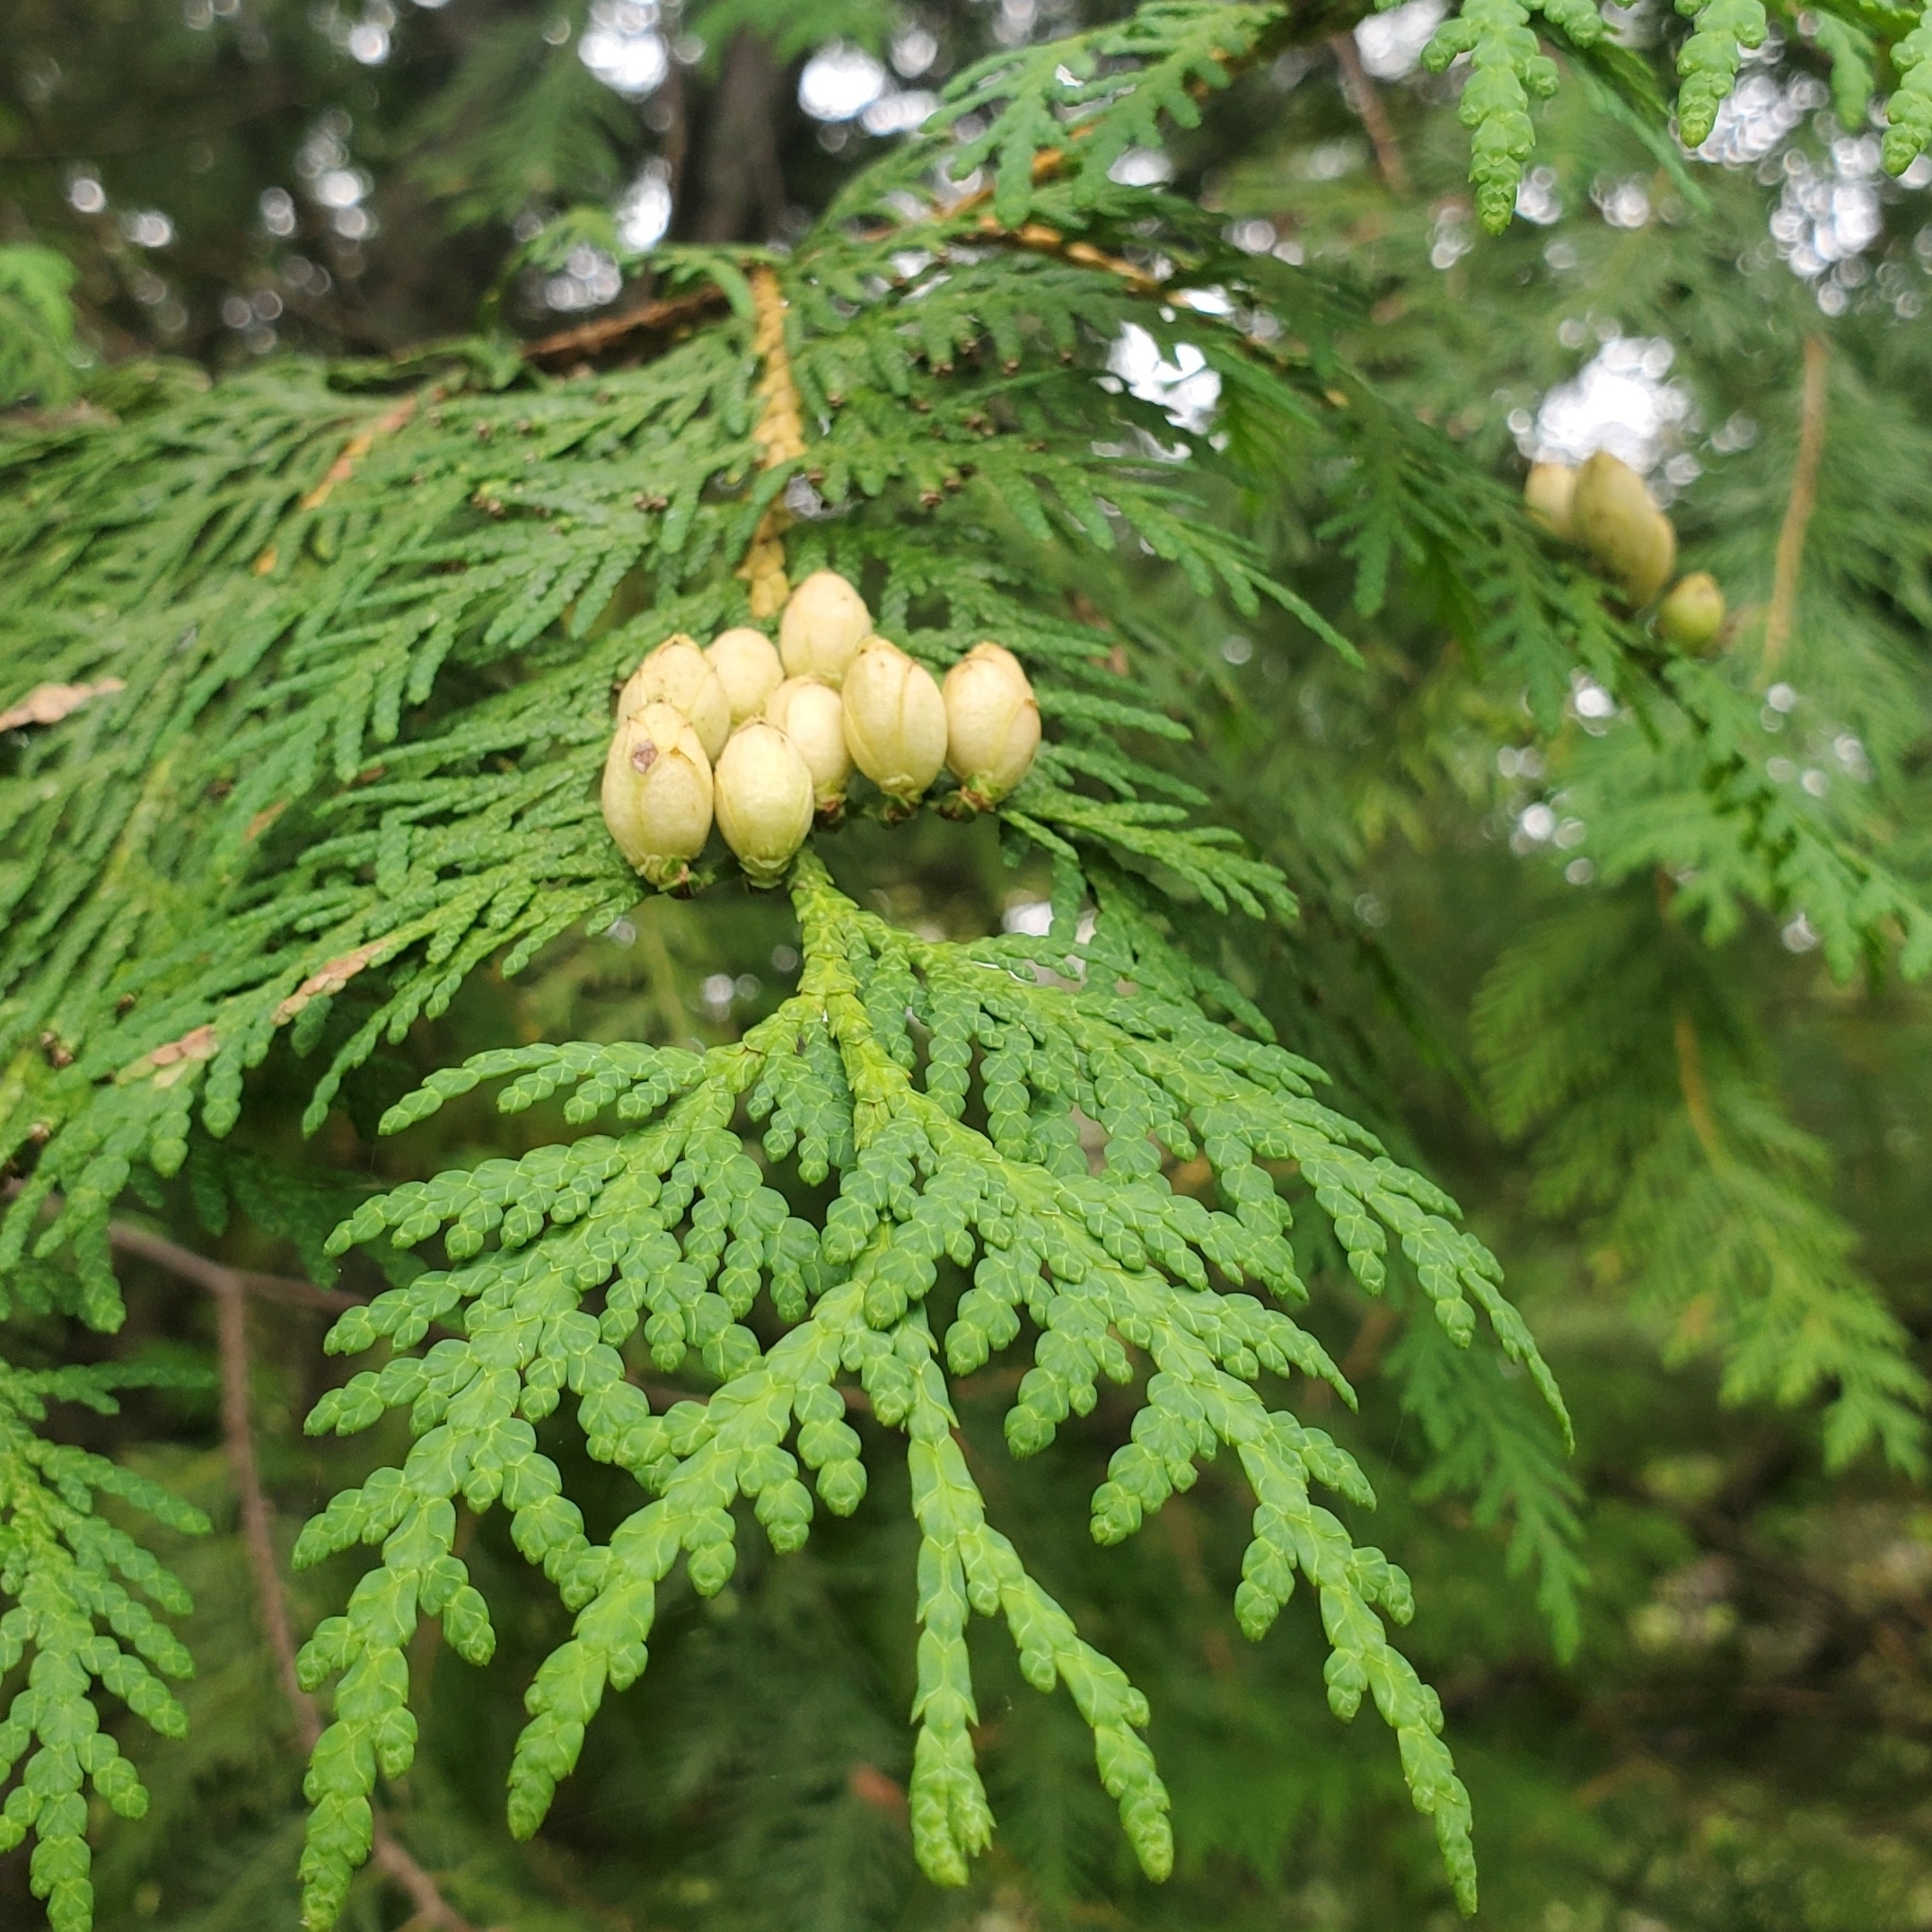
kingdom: Plantae
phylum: Tracheophyta
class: Pinopsida
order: Pinales
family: Cupressaceae
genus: Thuja
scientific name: Thuja occidentalis
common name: Northern white-cedar
